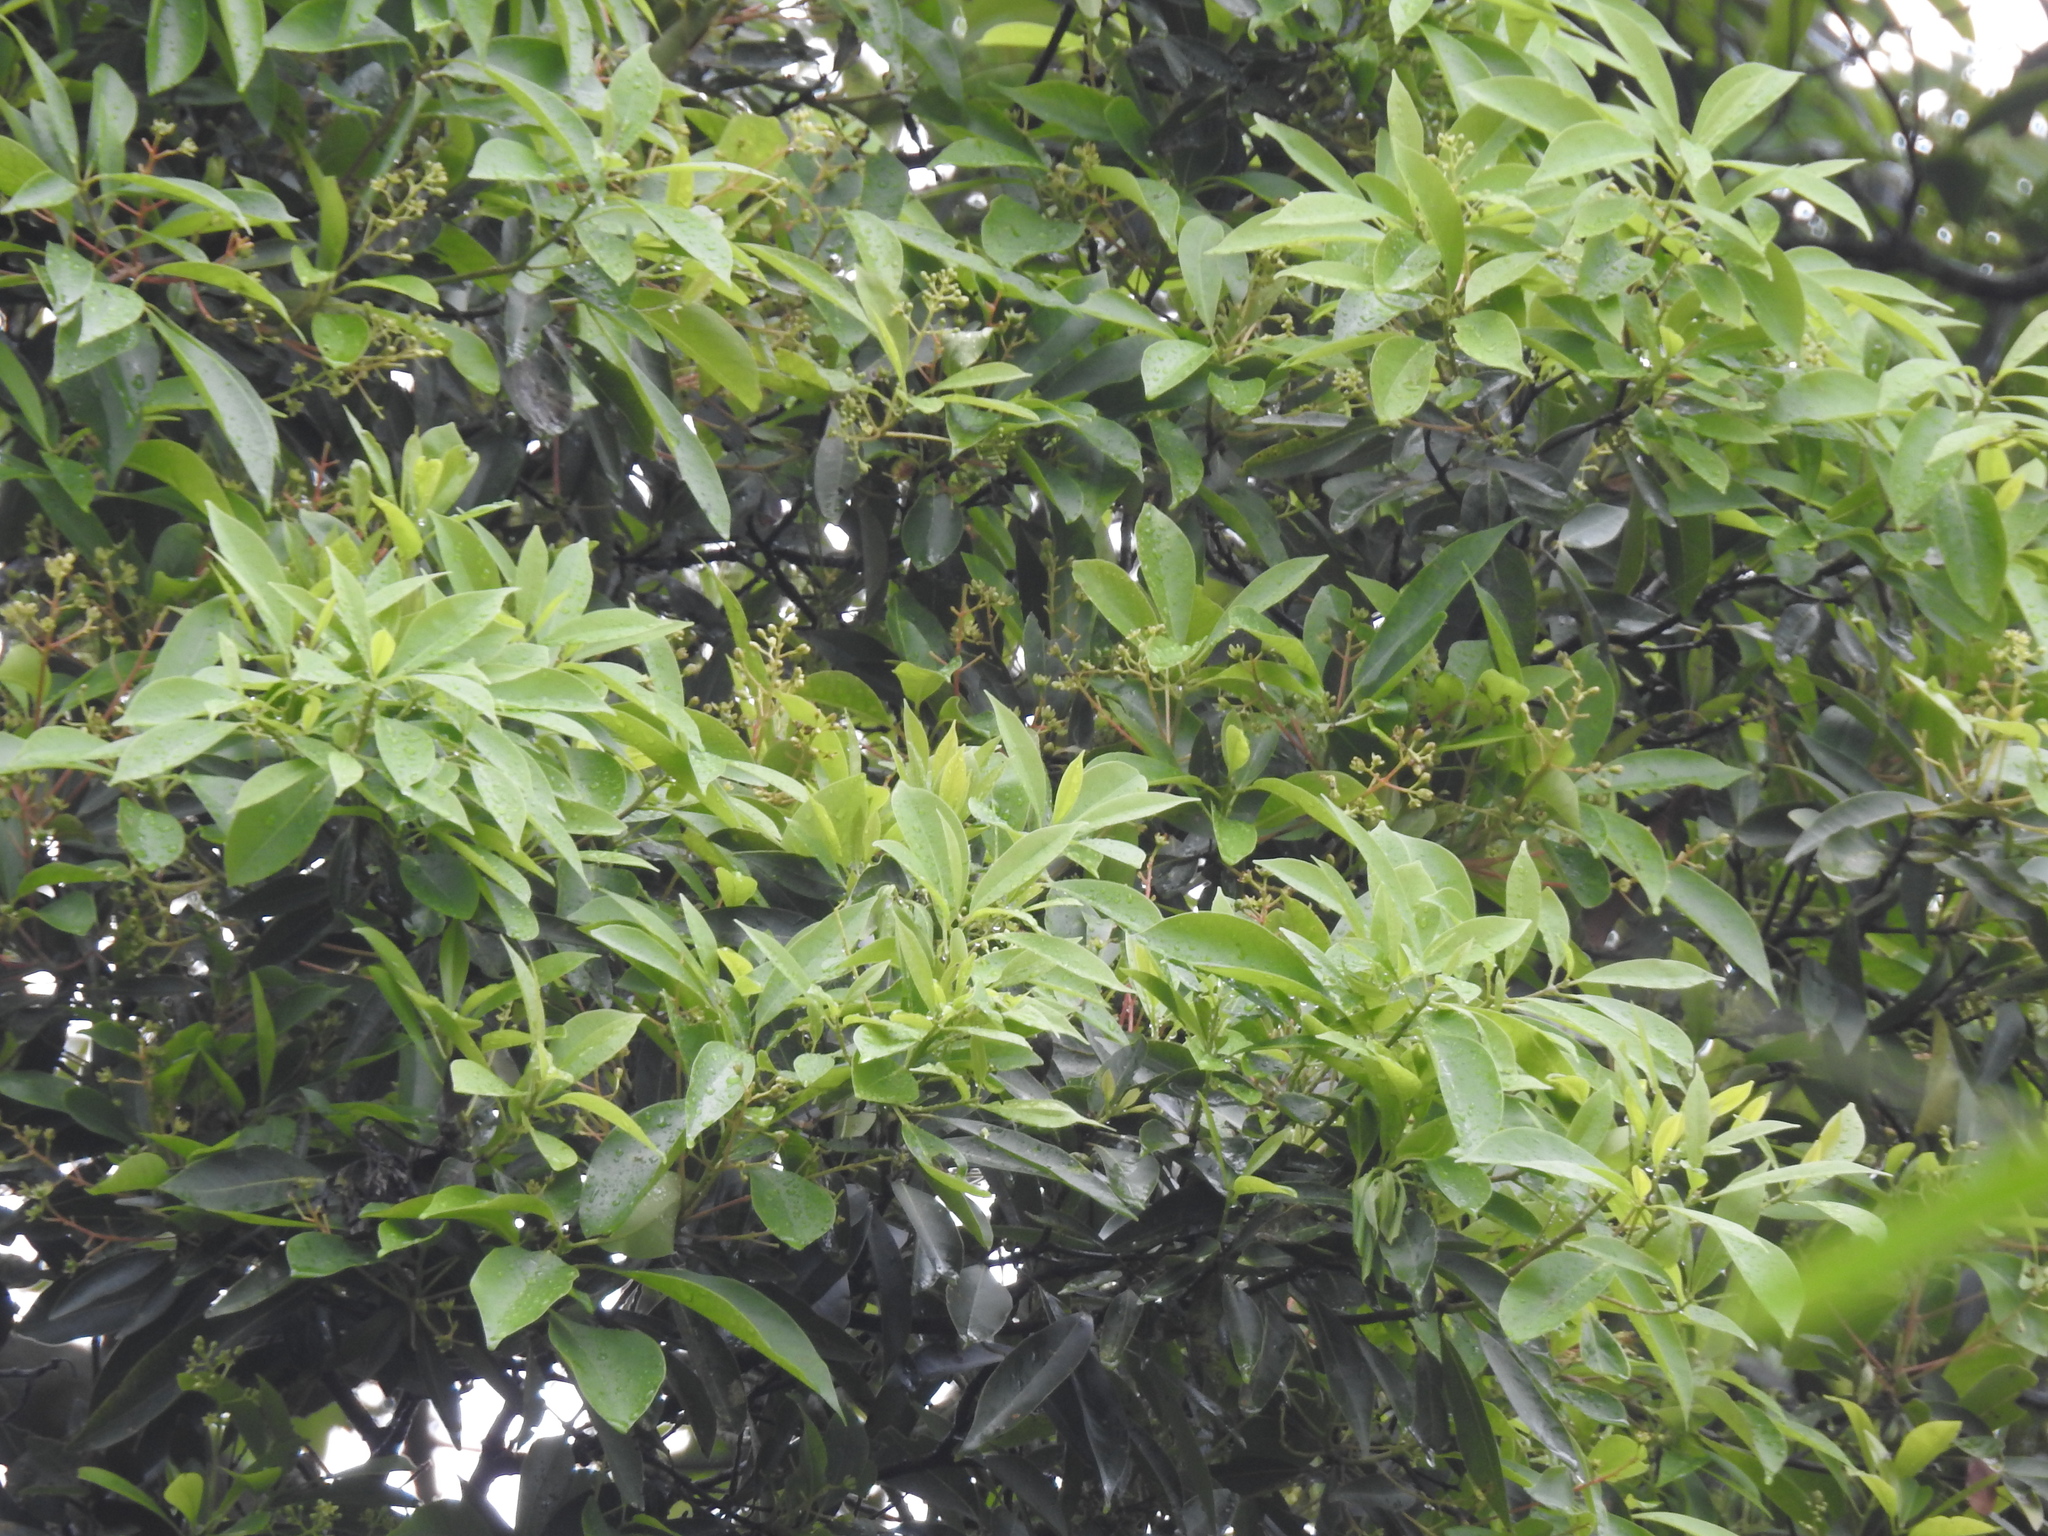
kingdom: Plantae
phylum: Tracheophyta
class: Magnoliopsida
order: Laurales
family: Lauraceae
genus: Machilus
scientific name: Machilus zuihoensis
